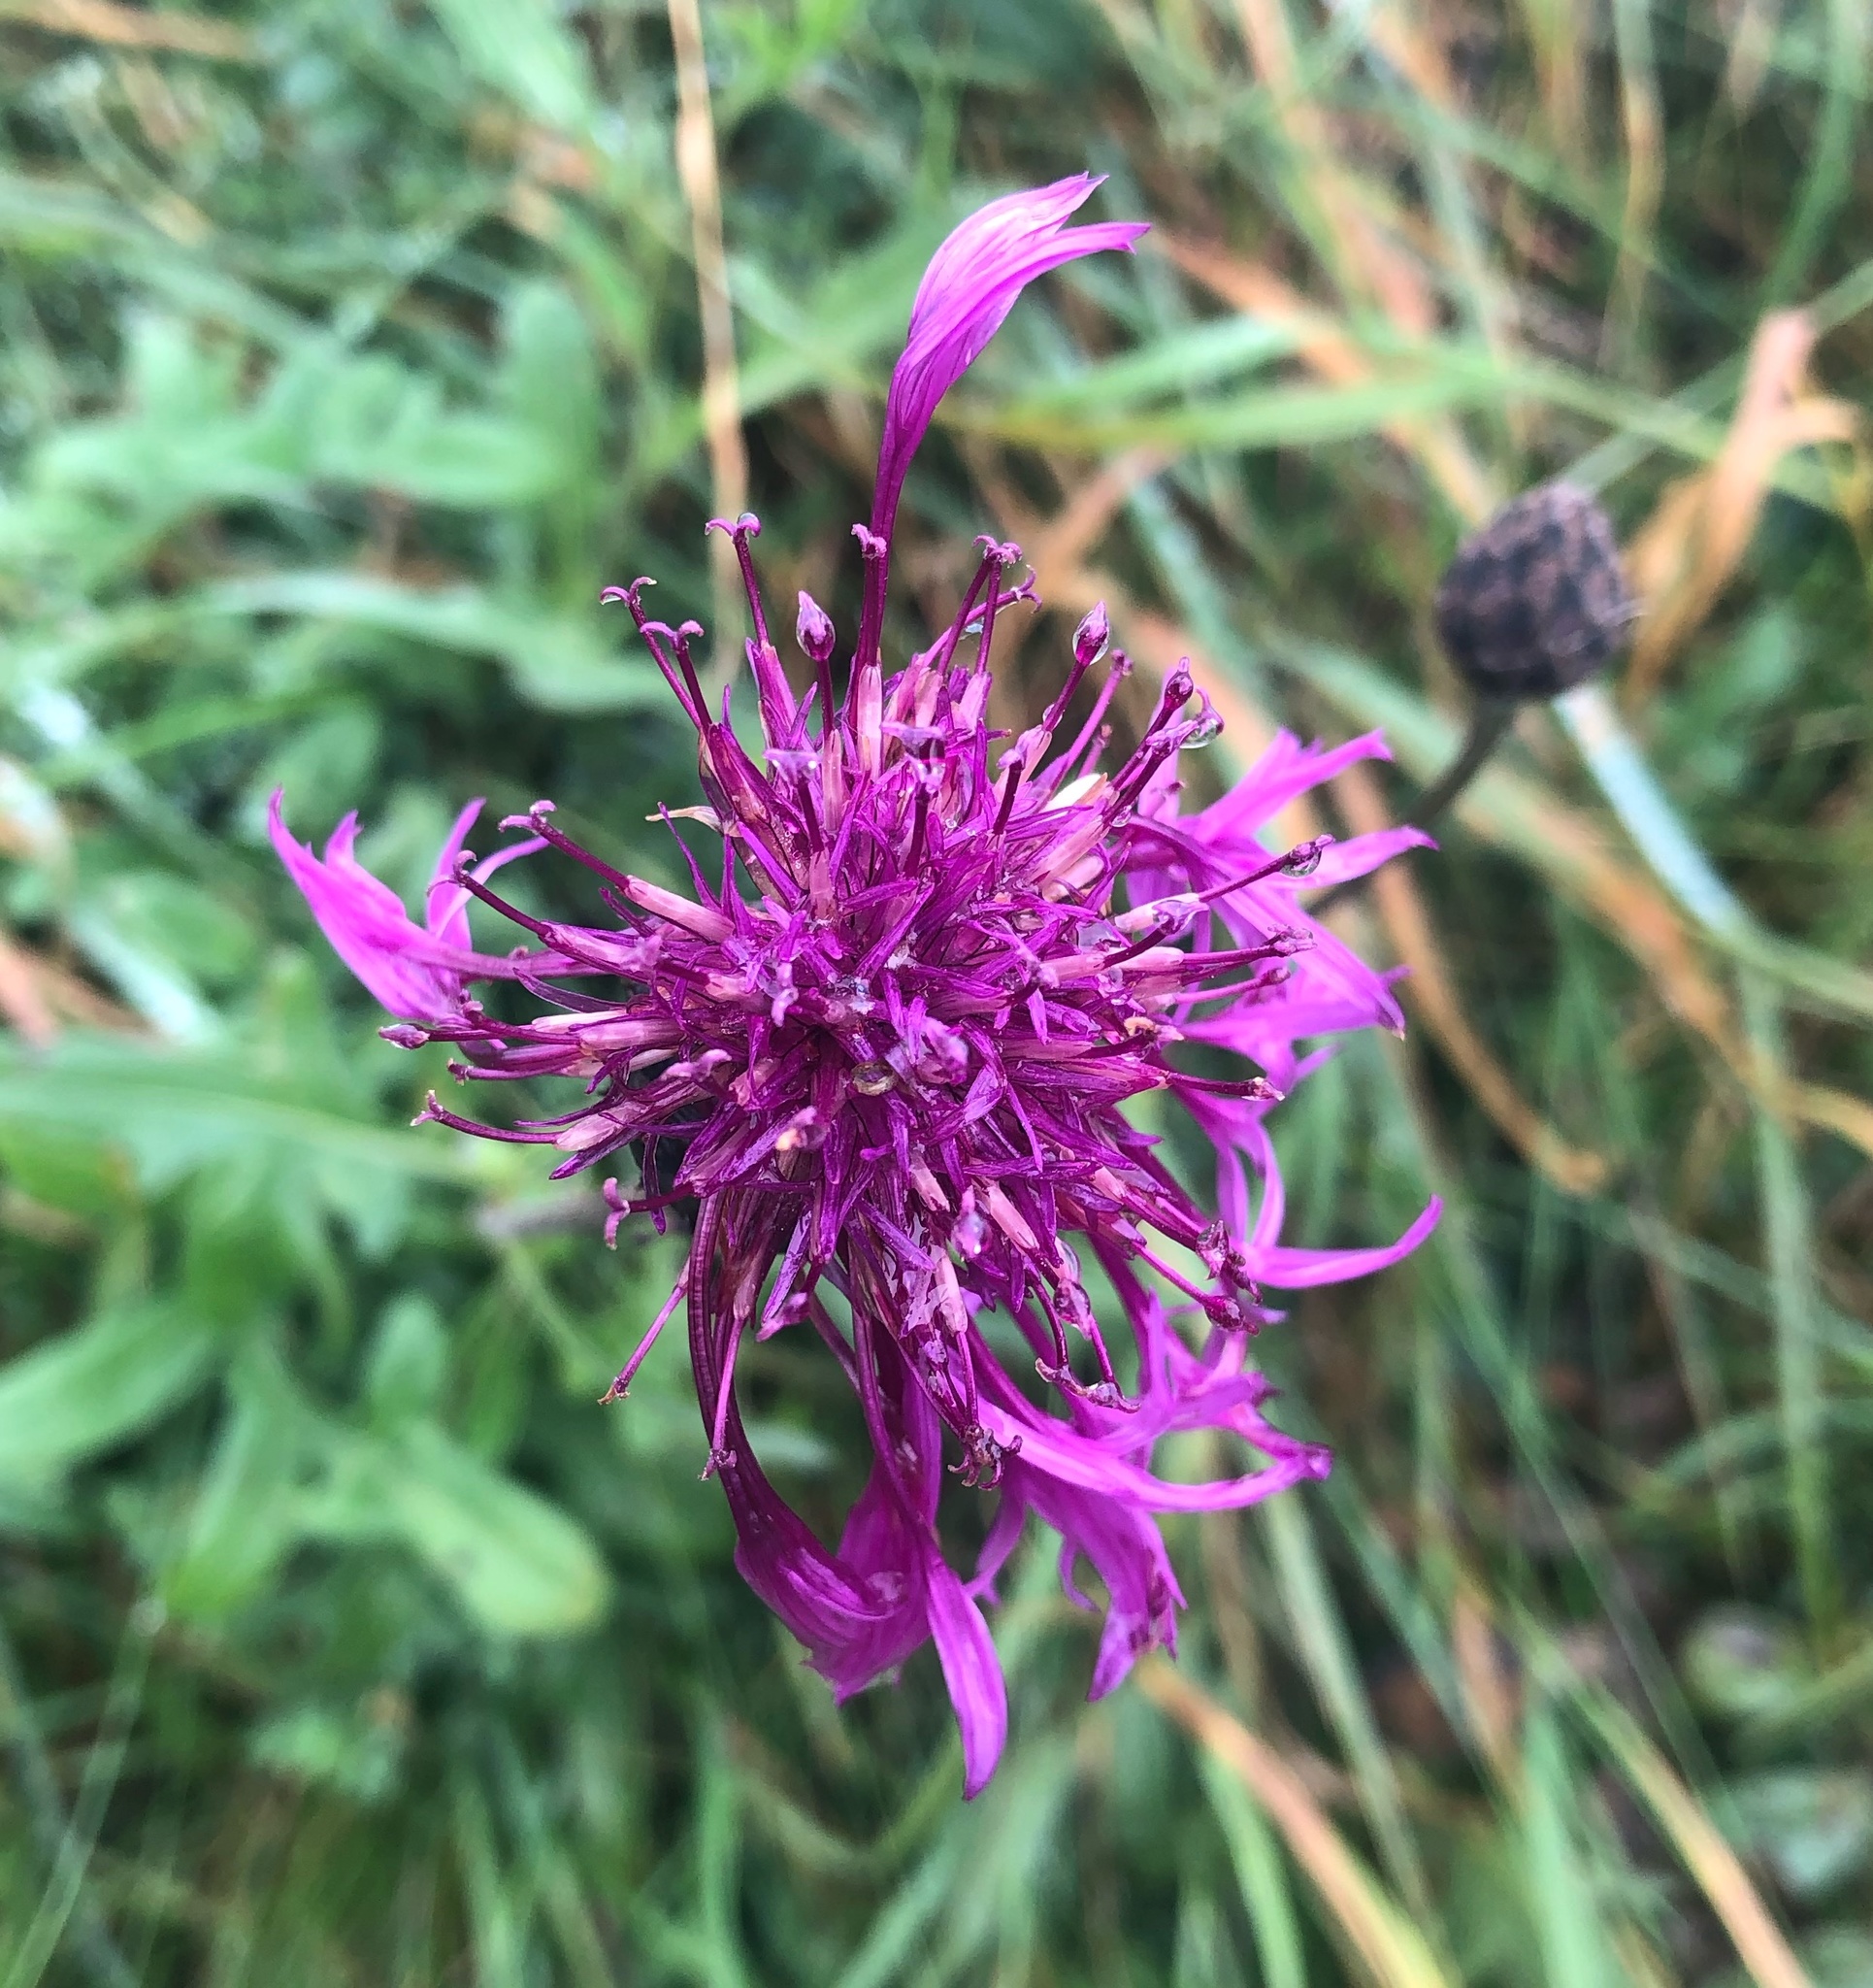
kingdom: Plantae
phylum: Tracheophyta
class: Magnoliopsida
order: Asterales
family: Asteraceae
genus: Centaurea
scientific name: Centaurea scabiosa
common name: Greater knapweed
